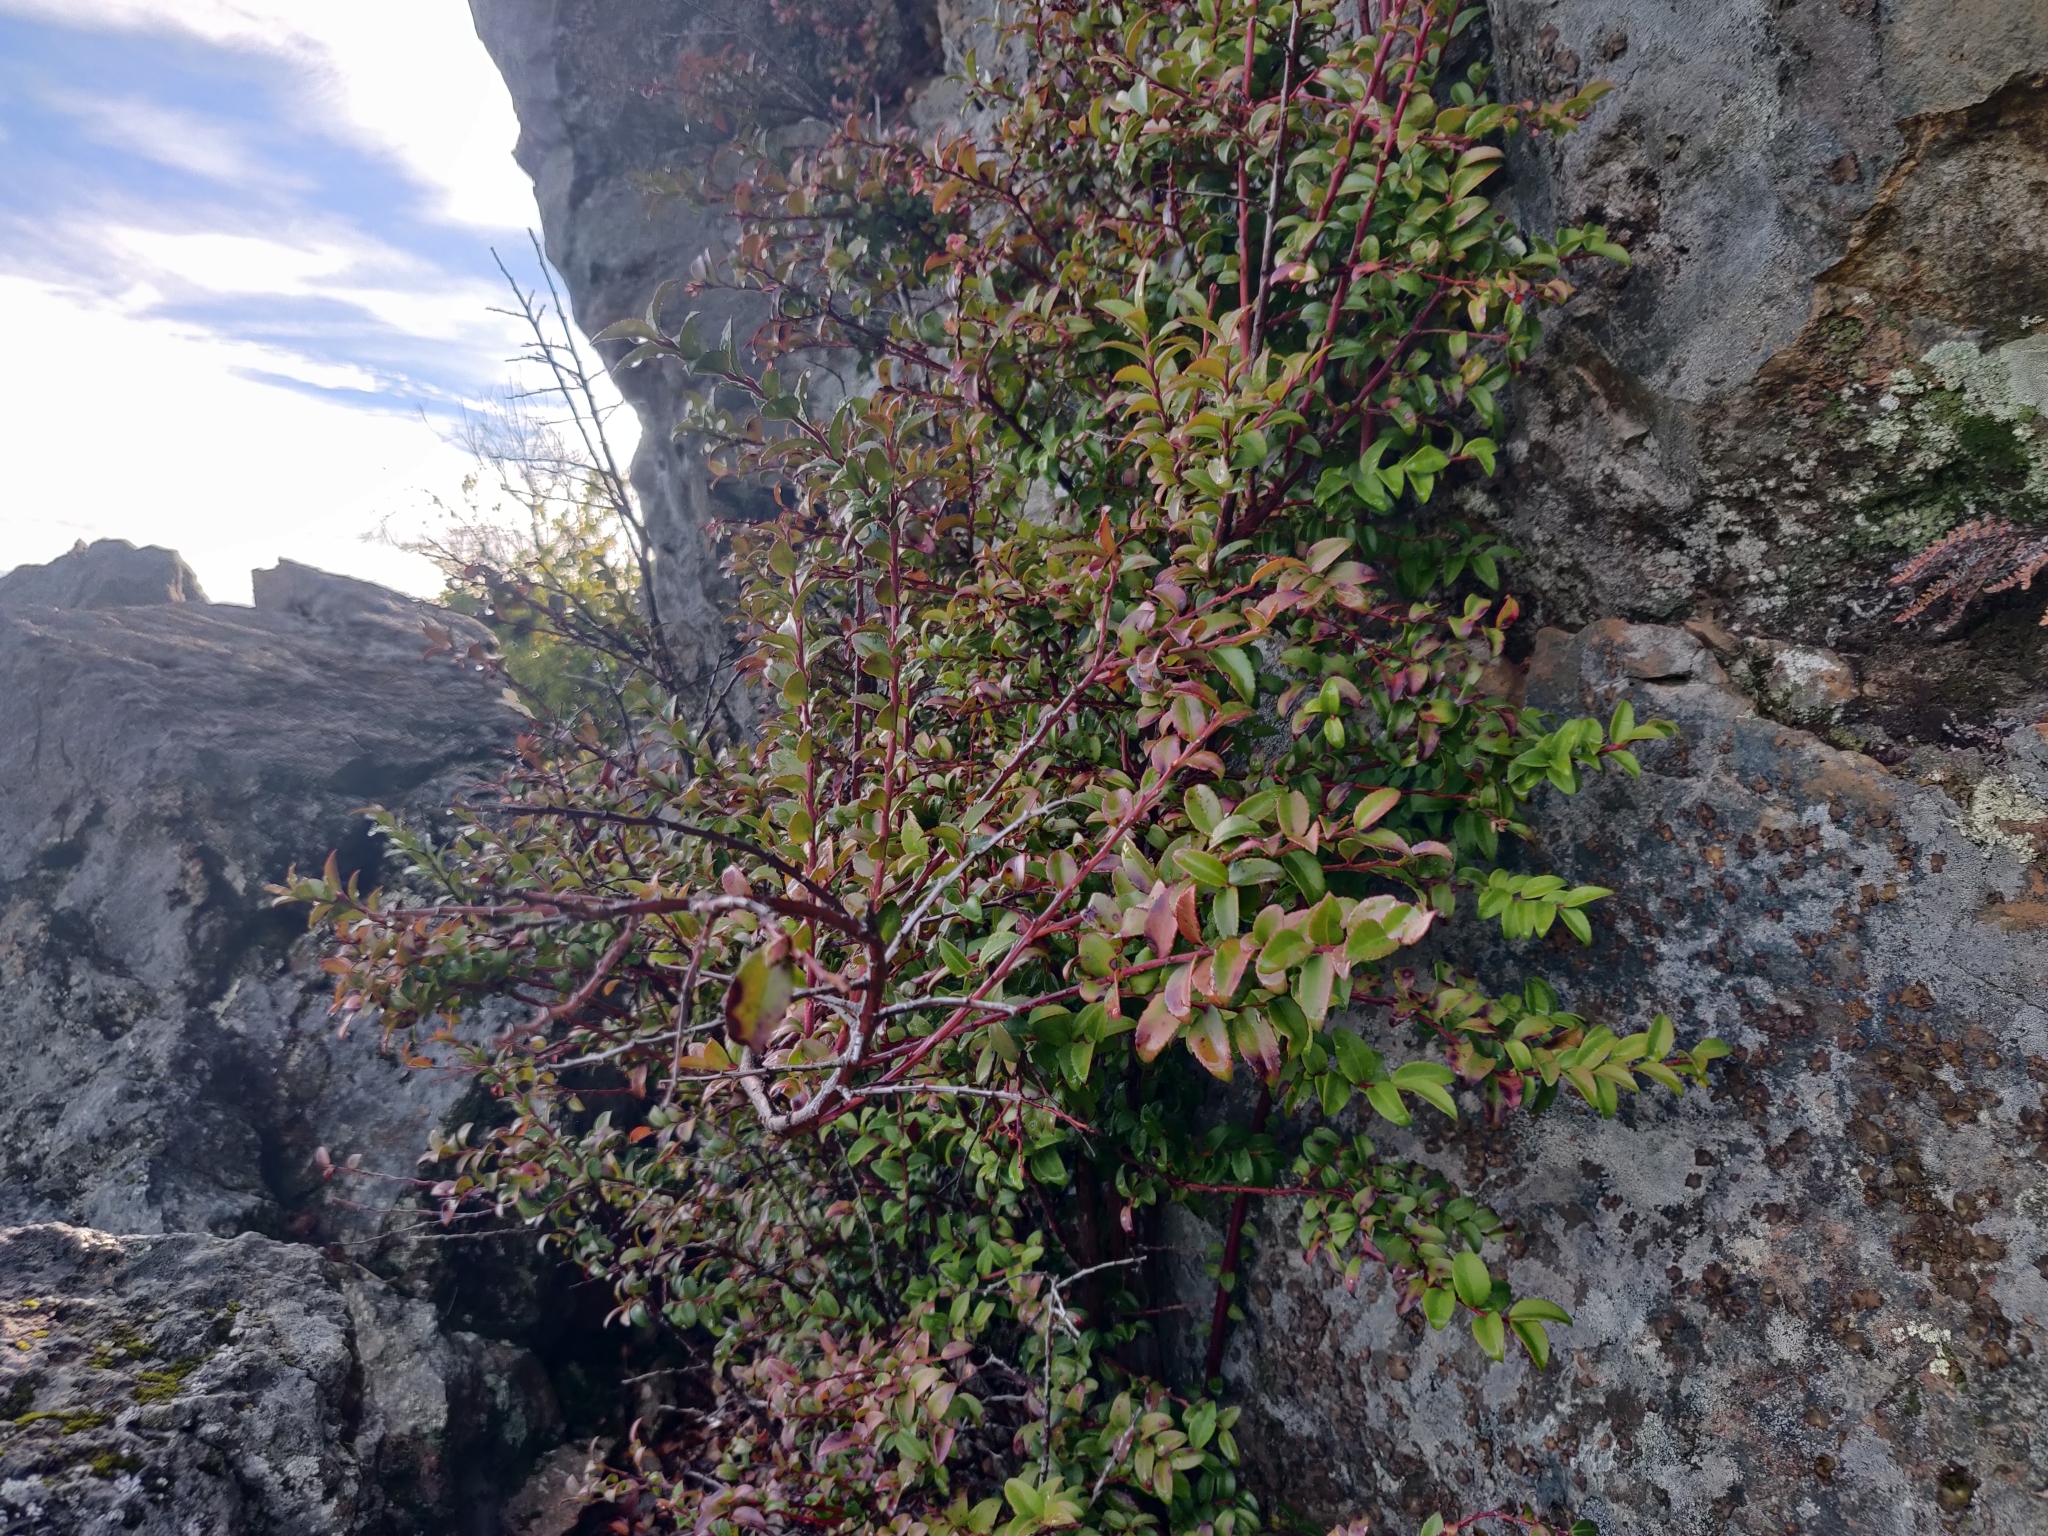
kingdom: Plantae
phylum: Tracheophyta
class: Magnoliopsida
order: Ericales
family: Ericaceae
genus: Vaccinium
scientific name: Vaccinium ovatum
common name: California-huckleberry
